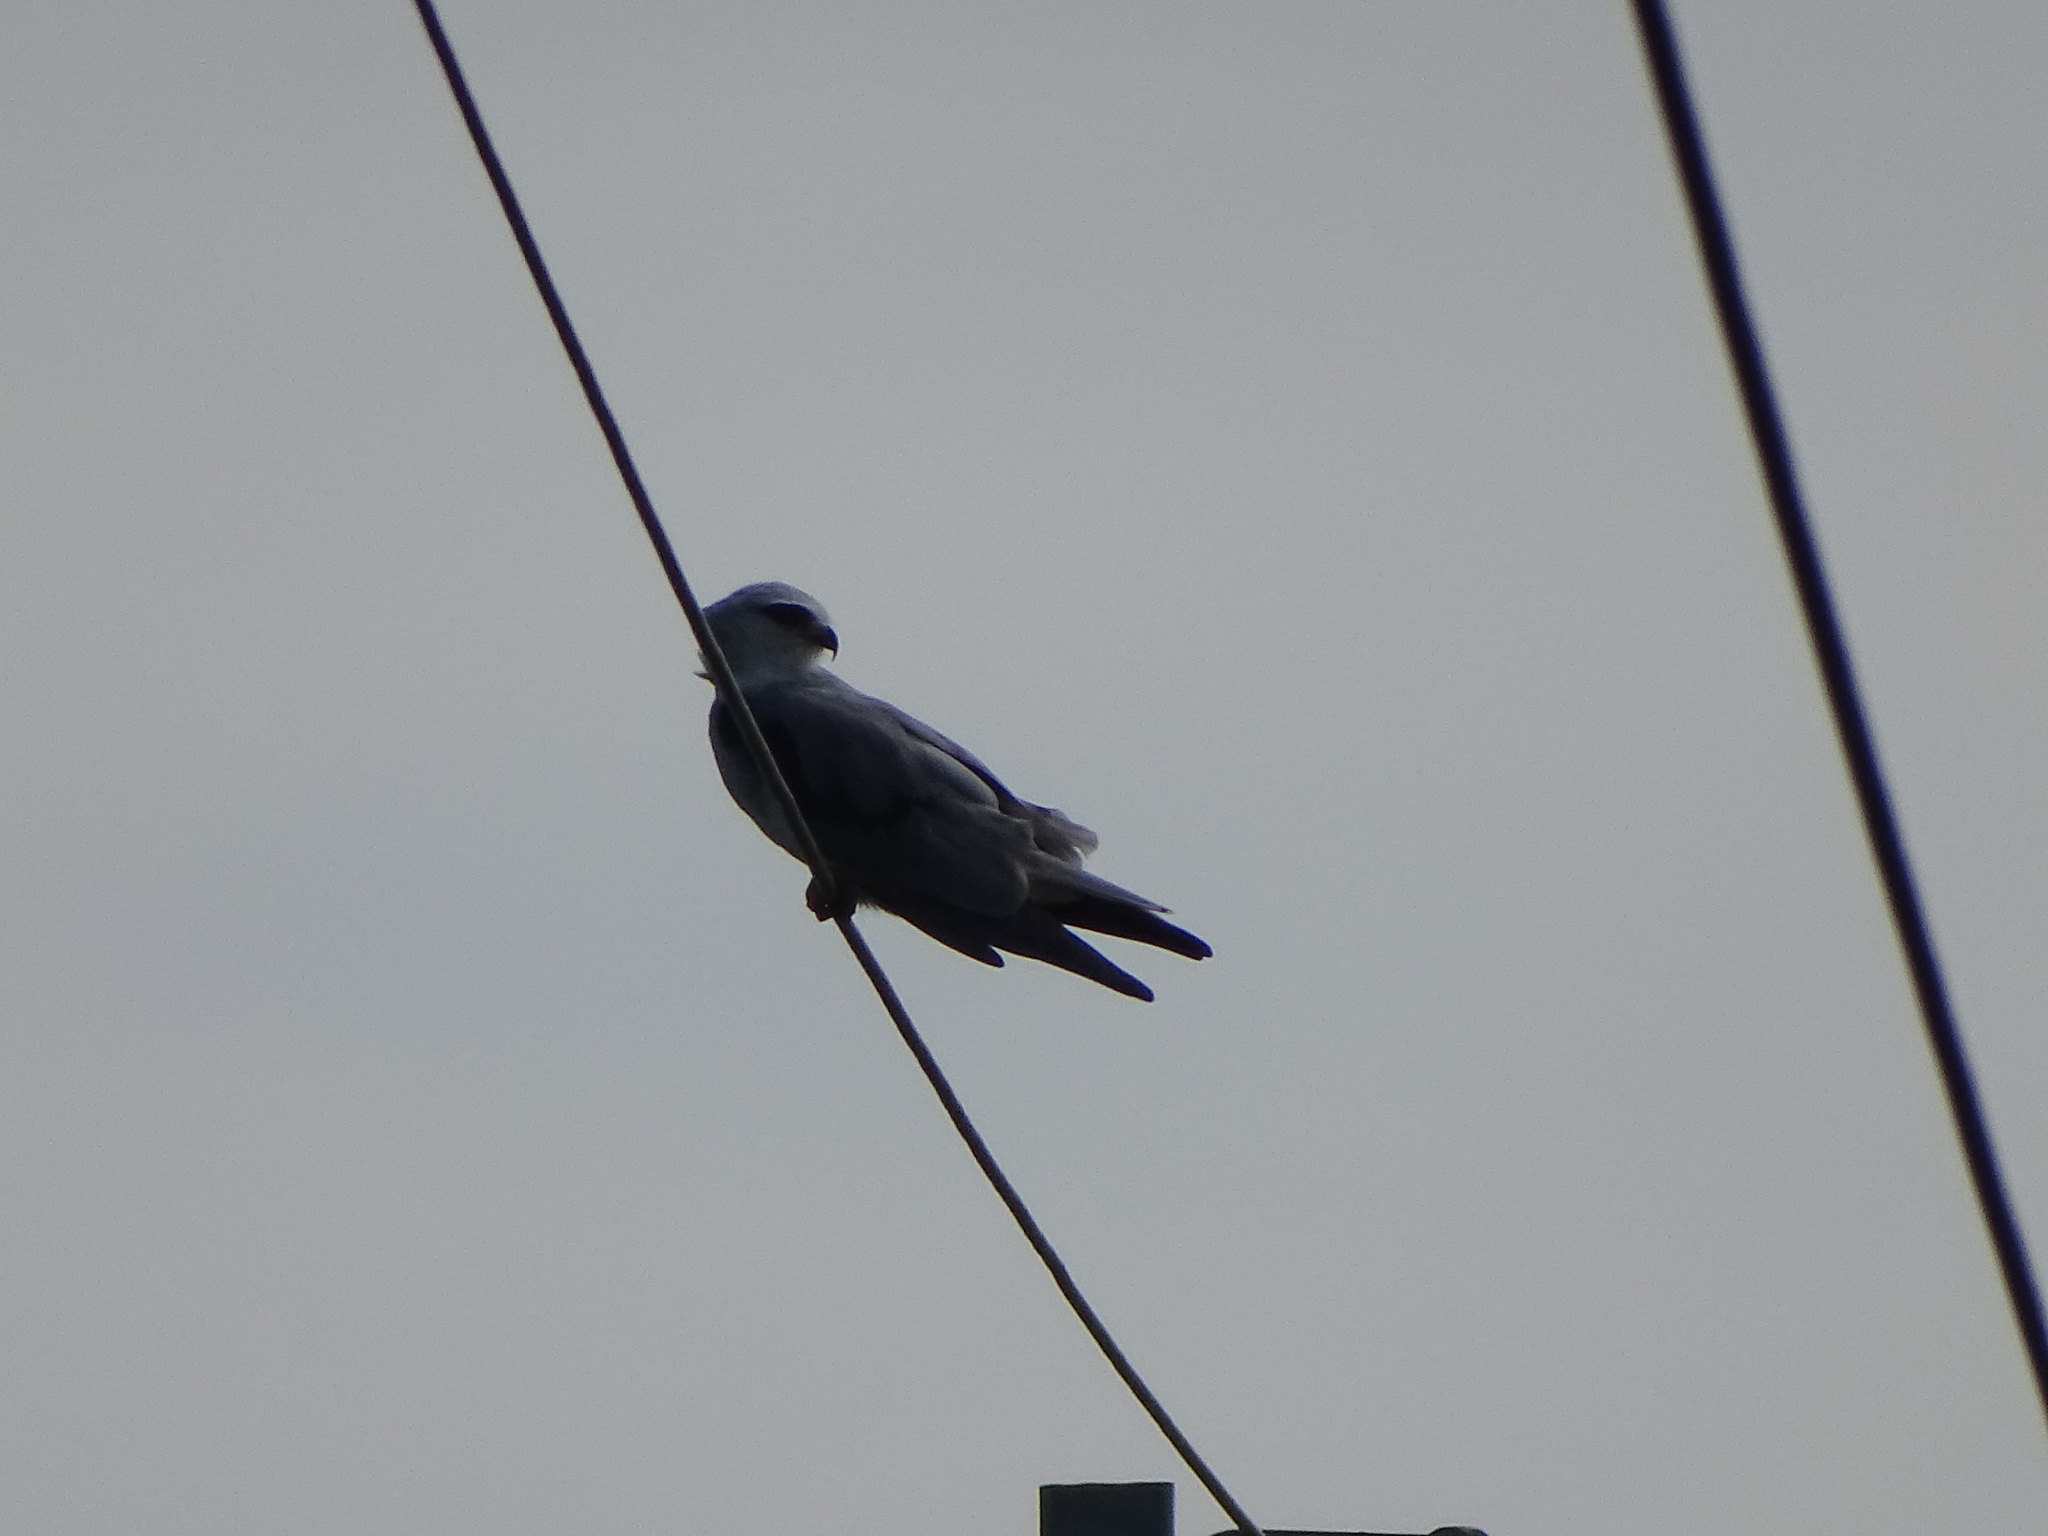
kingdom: Animalia
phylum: Chordata
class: Aves
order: Accipitriformes
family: Accipitridae
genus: Elanus
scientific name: Elanus caeruleus
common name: Black-winged kite
